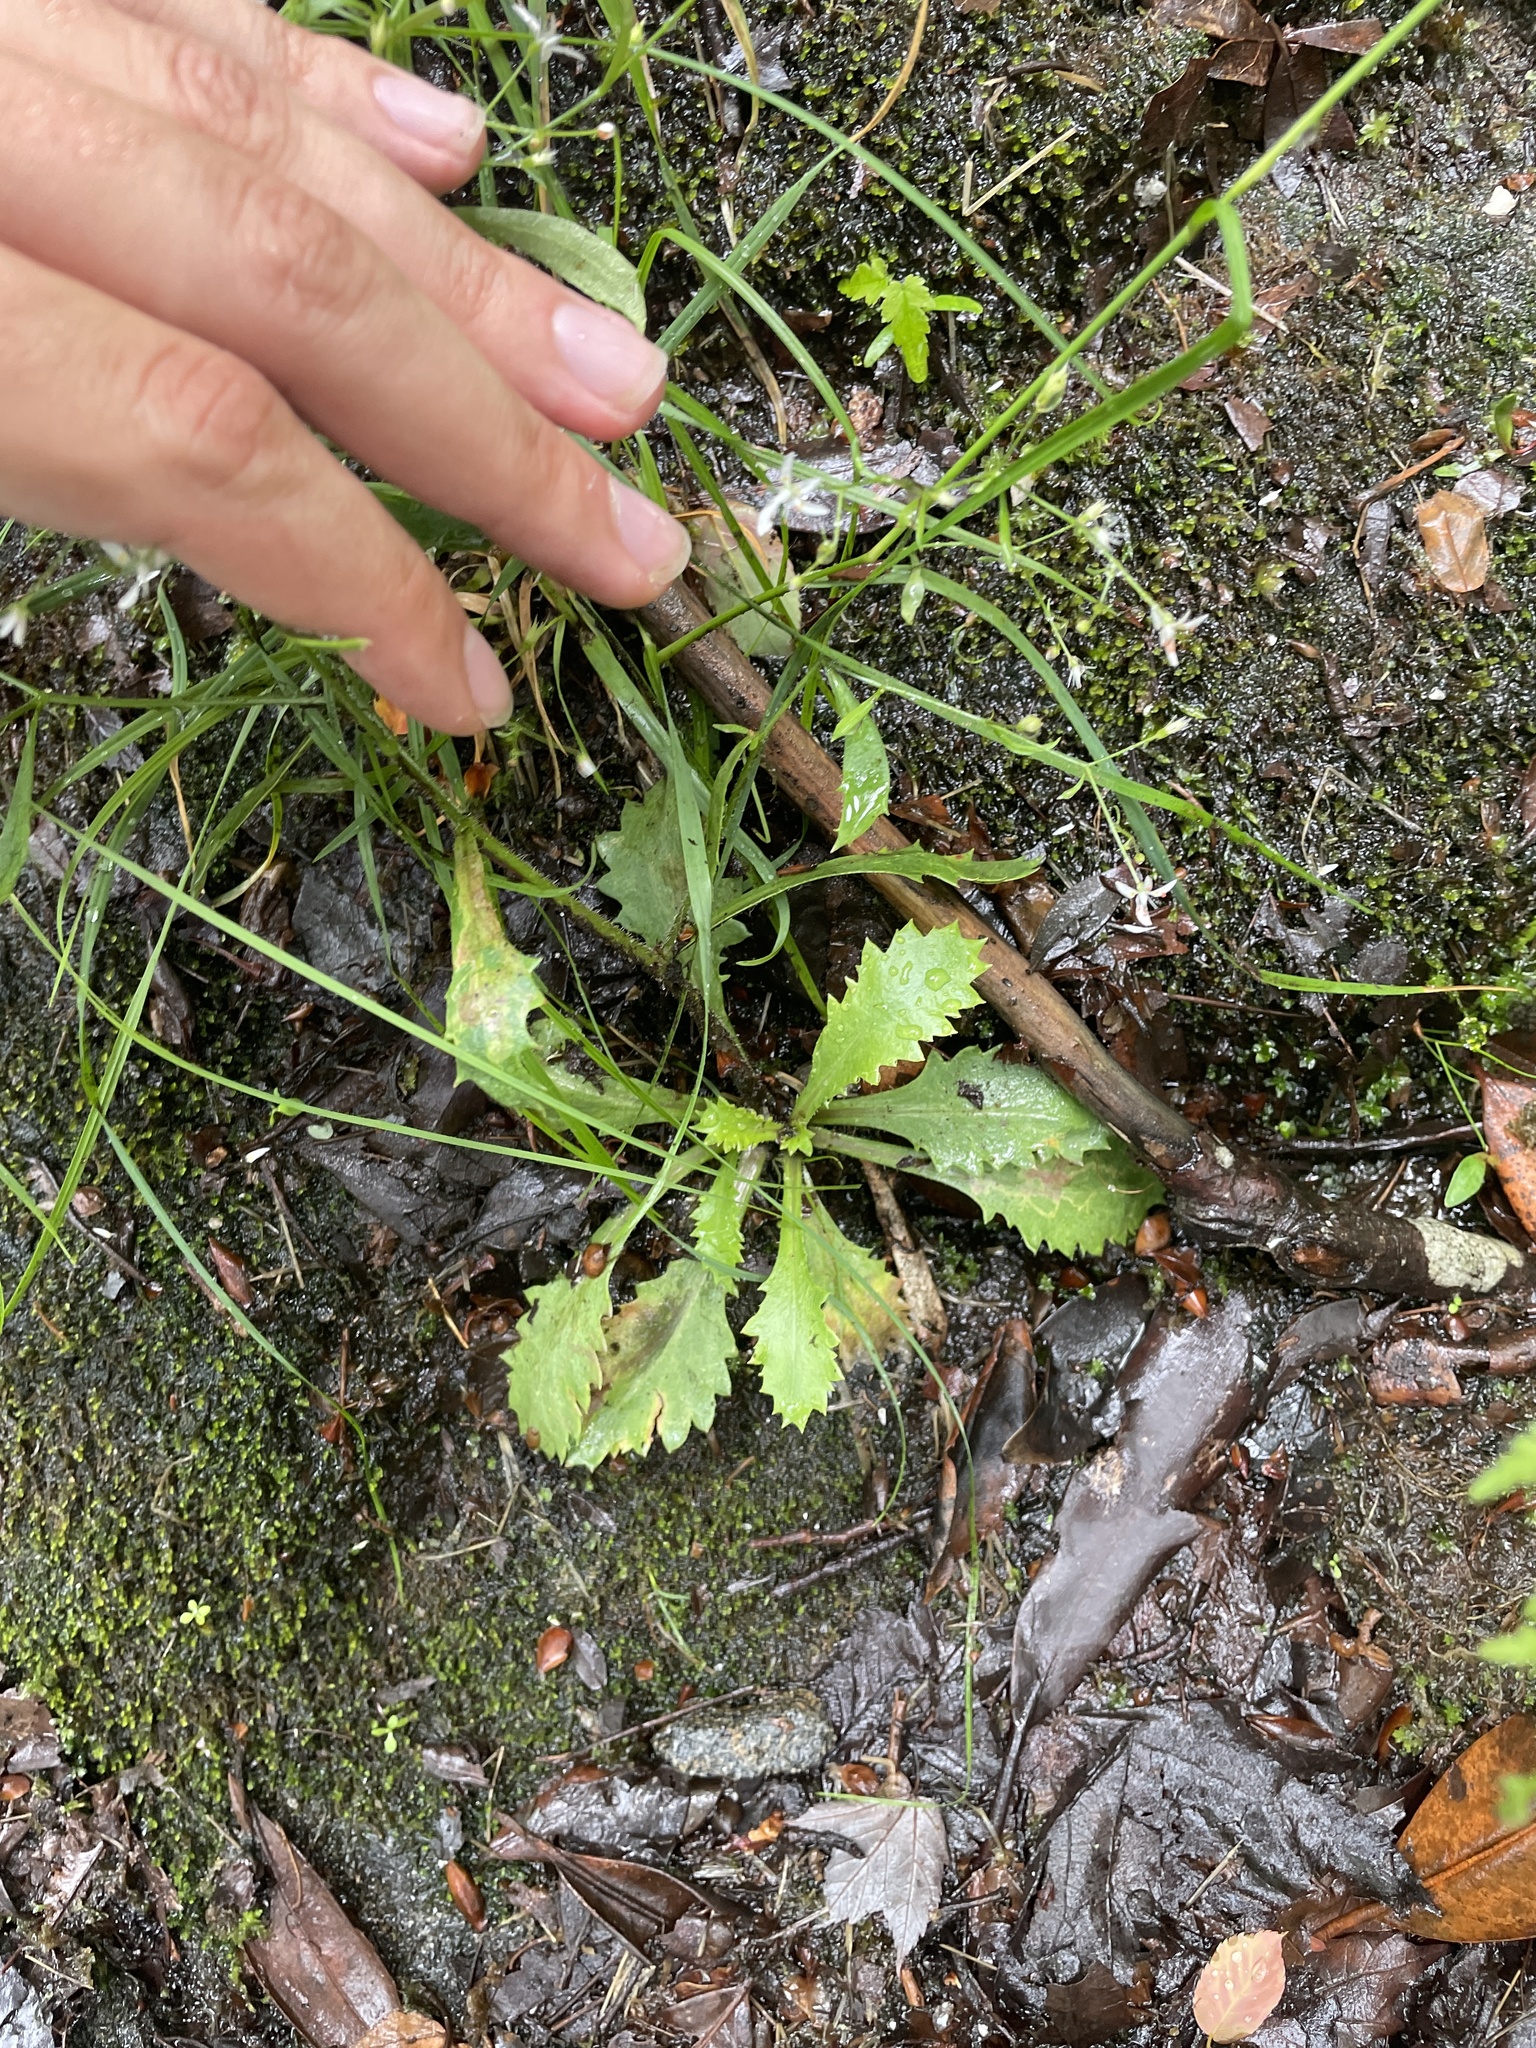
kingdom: Plantae
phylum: Tracheophyta
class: Magnoliopsida
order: Saxifragales
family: Saxifragaceae
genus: Micranthes
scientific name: Micranthes petiolaris
